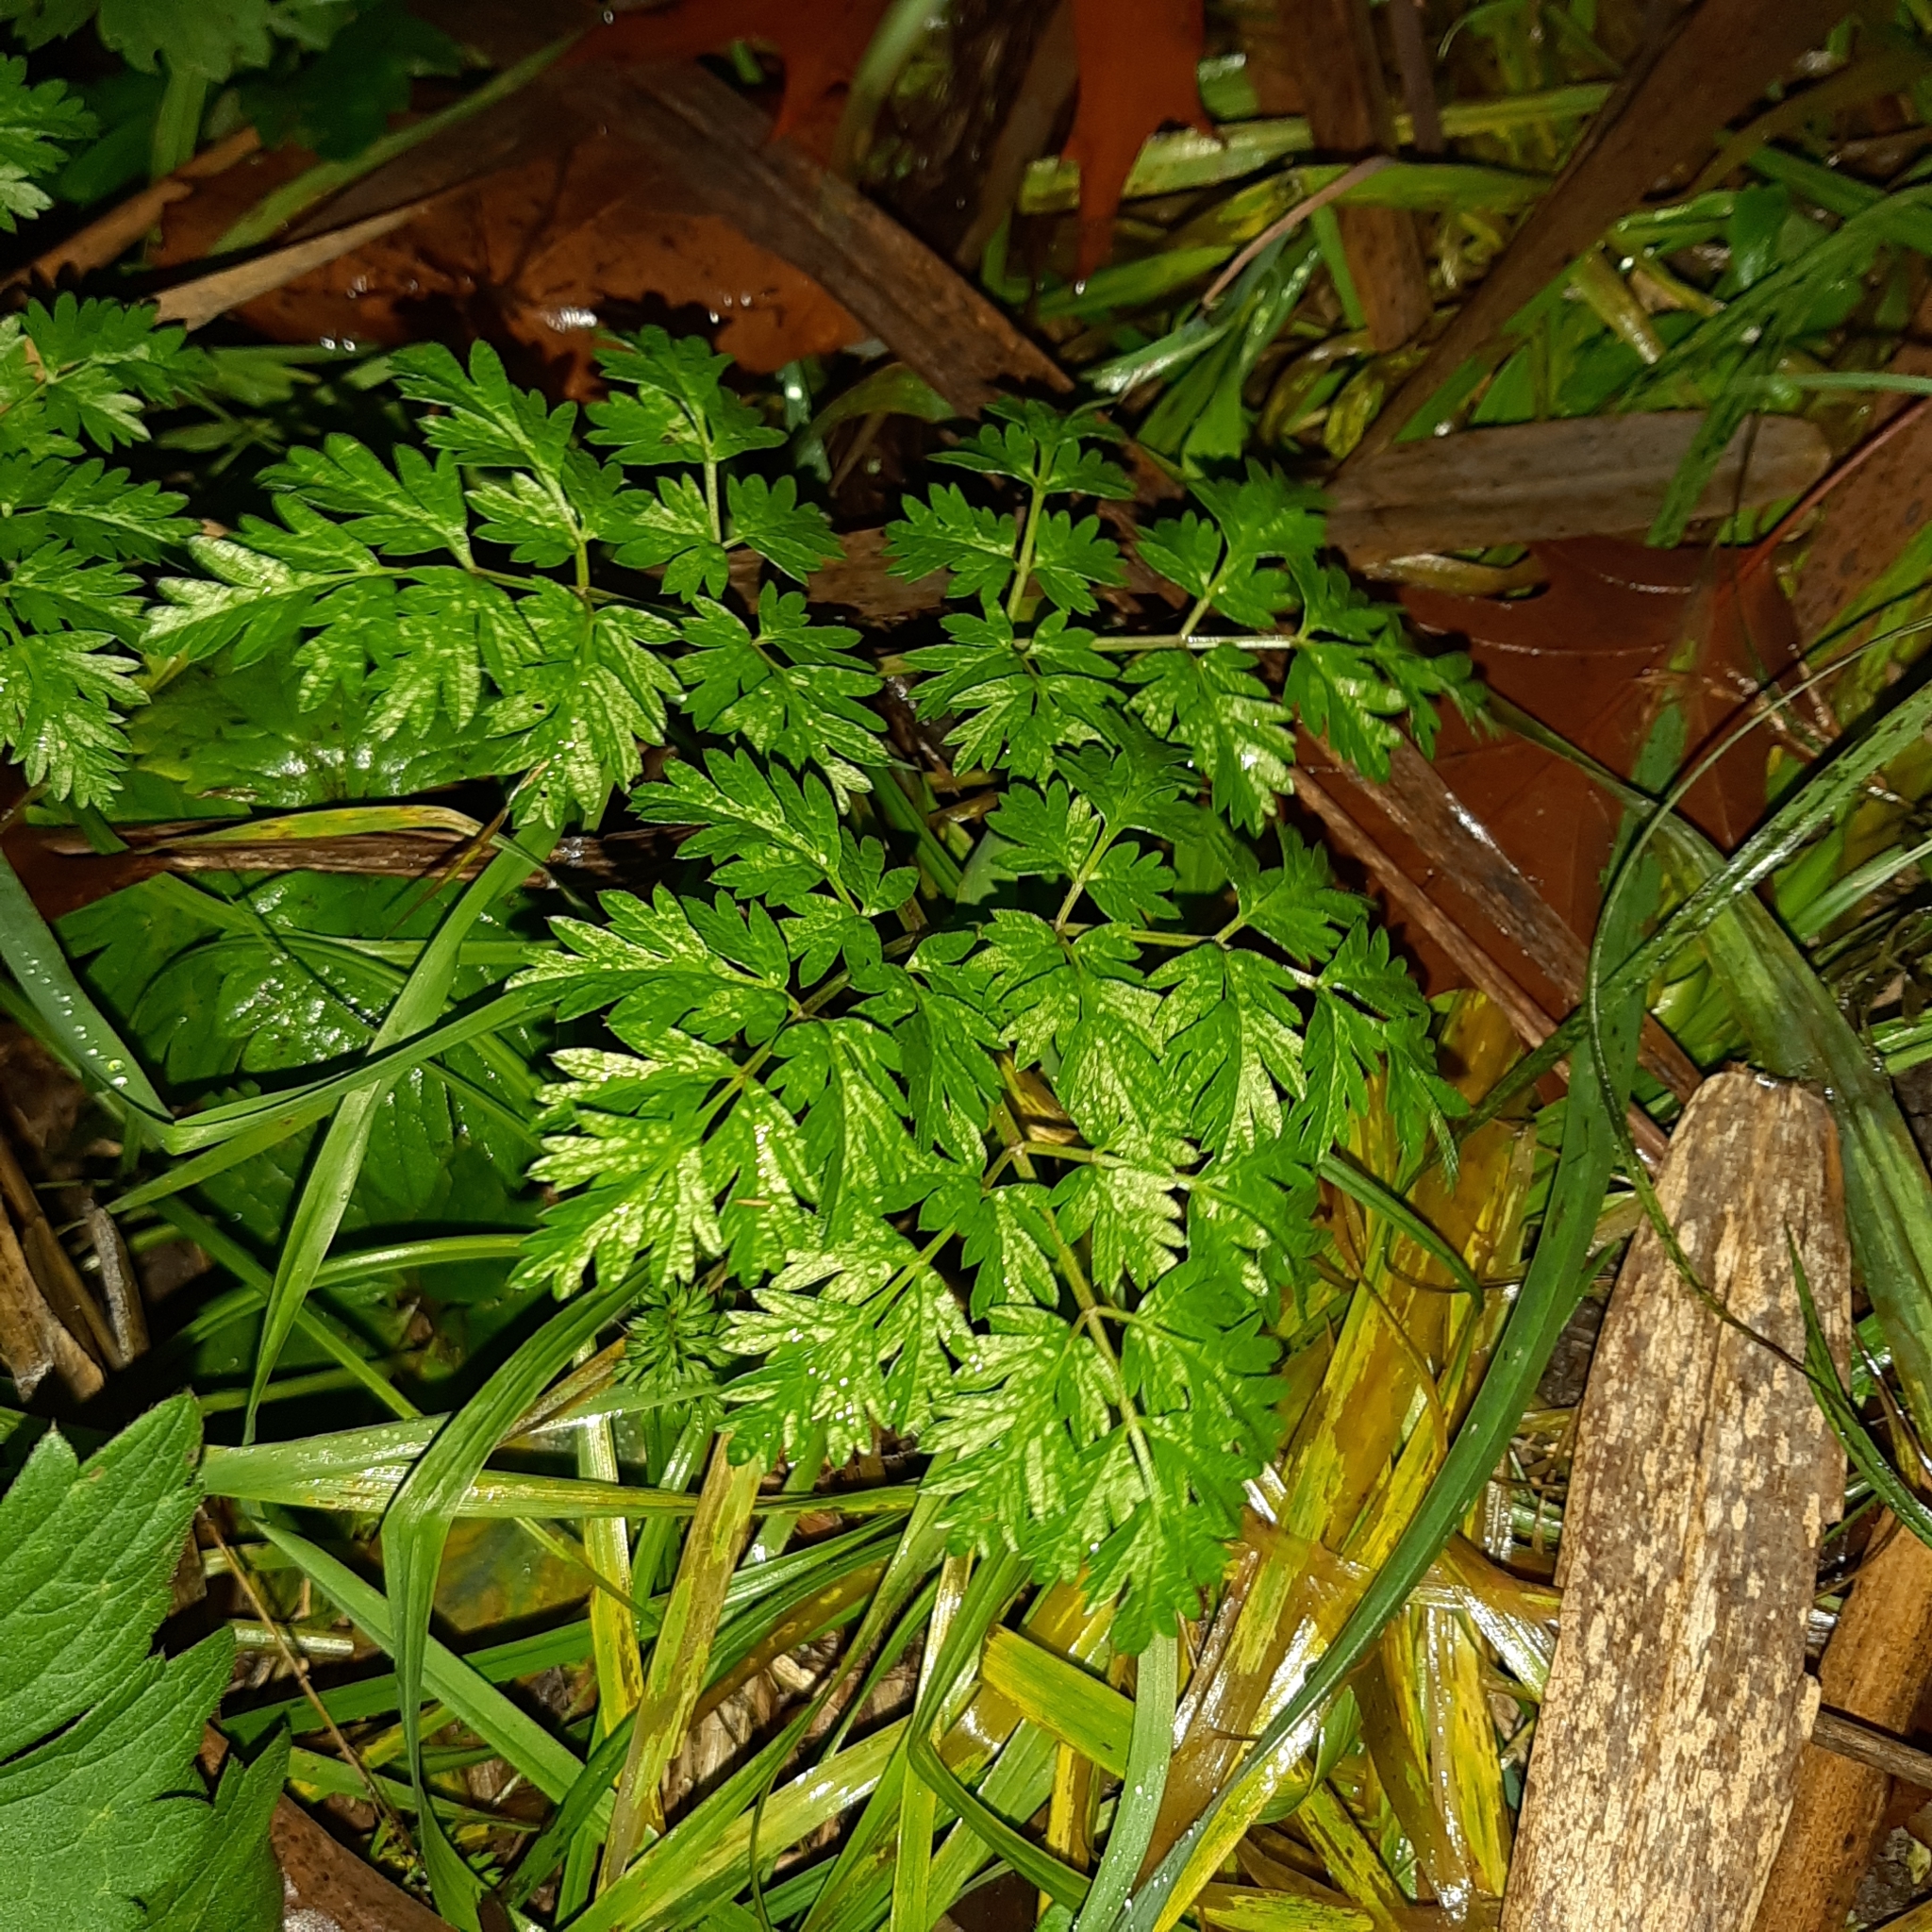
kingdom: Plantae
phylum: Tracheophyta
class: Magnoliopsida
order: Apiales
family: Apiaceae
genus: Anthriscus
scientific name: Anthriscus sylvestris
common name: Cow parsley
